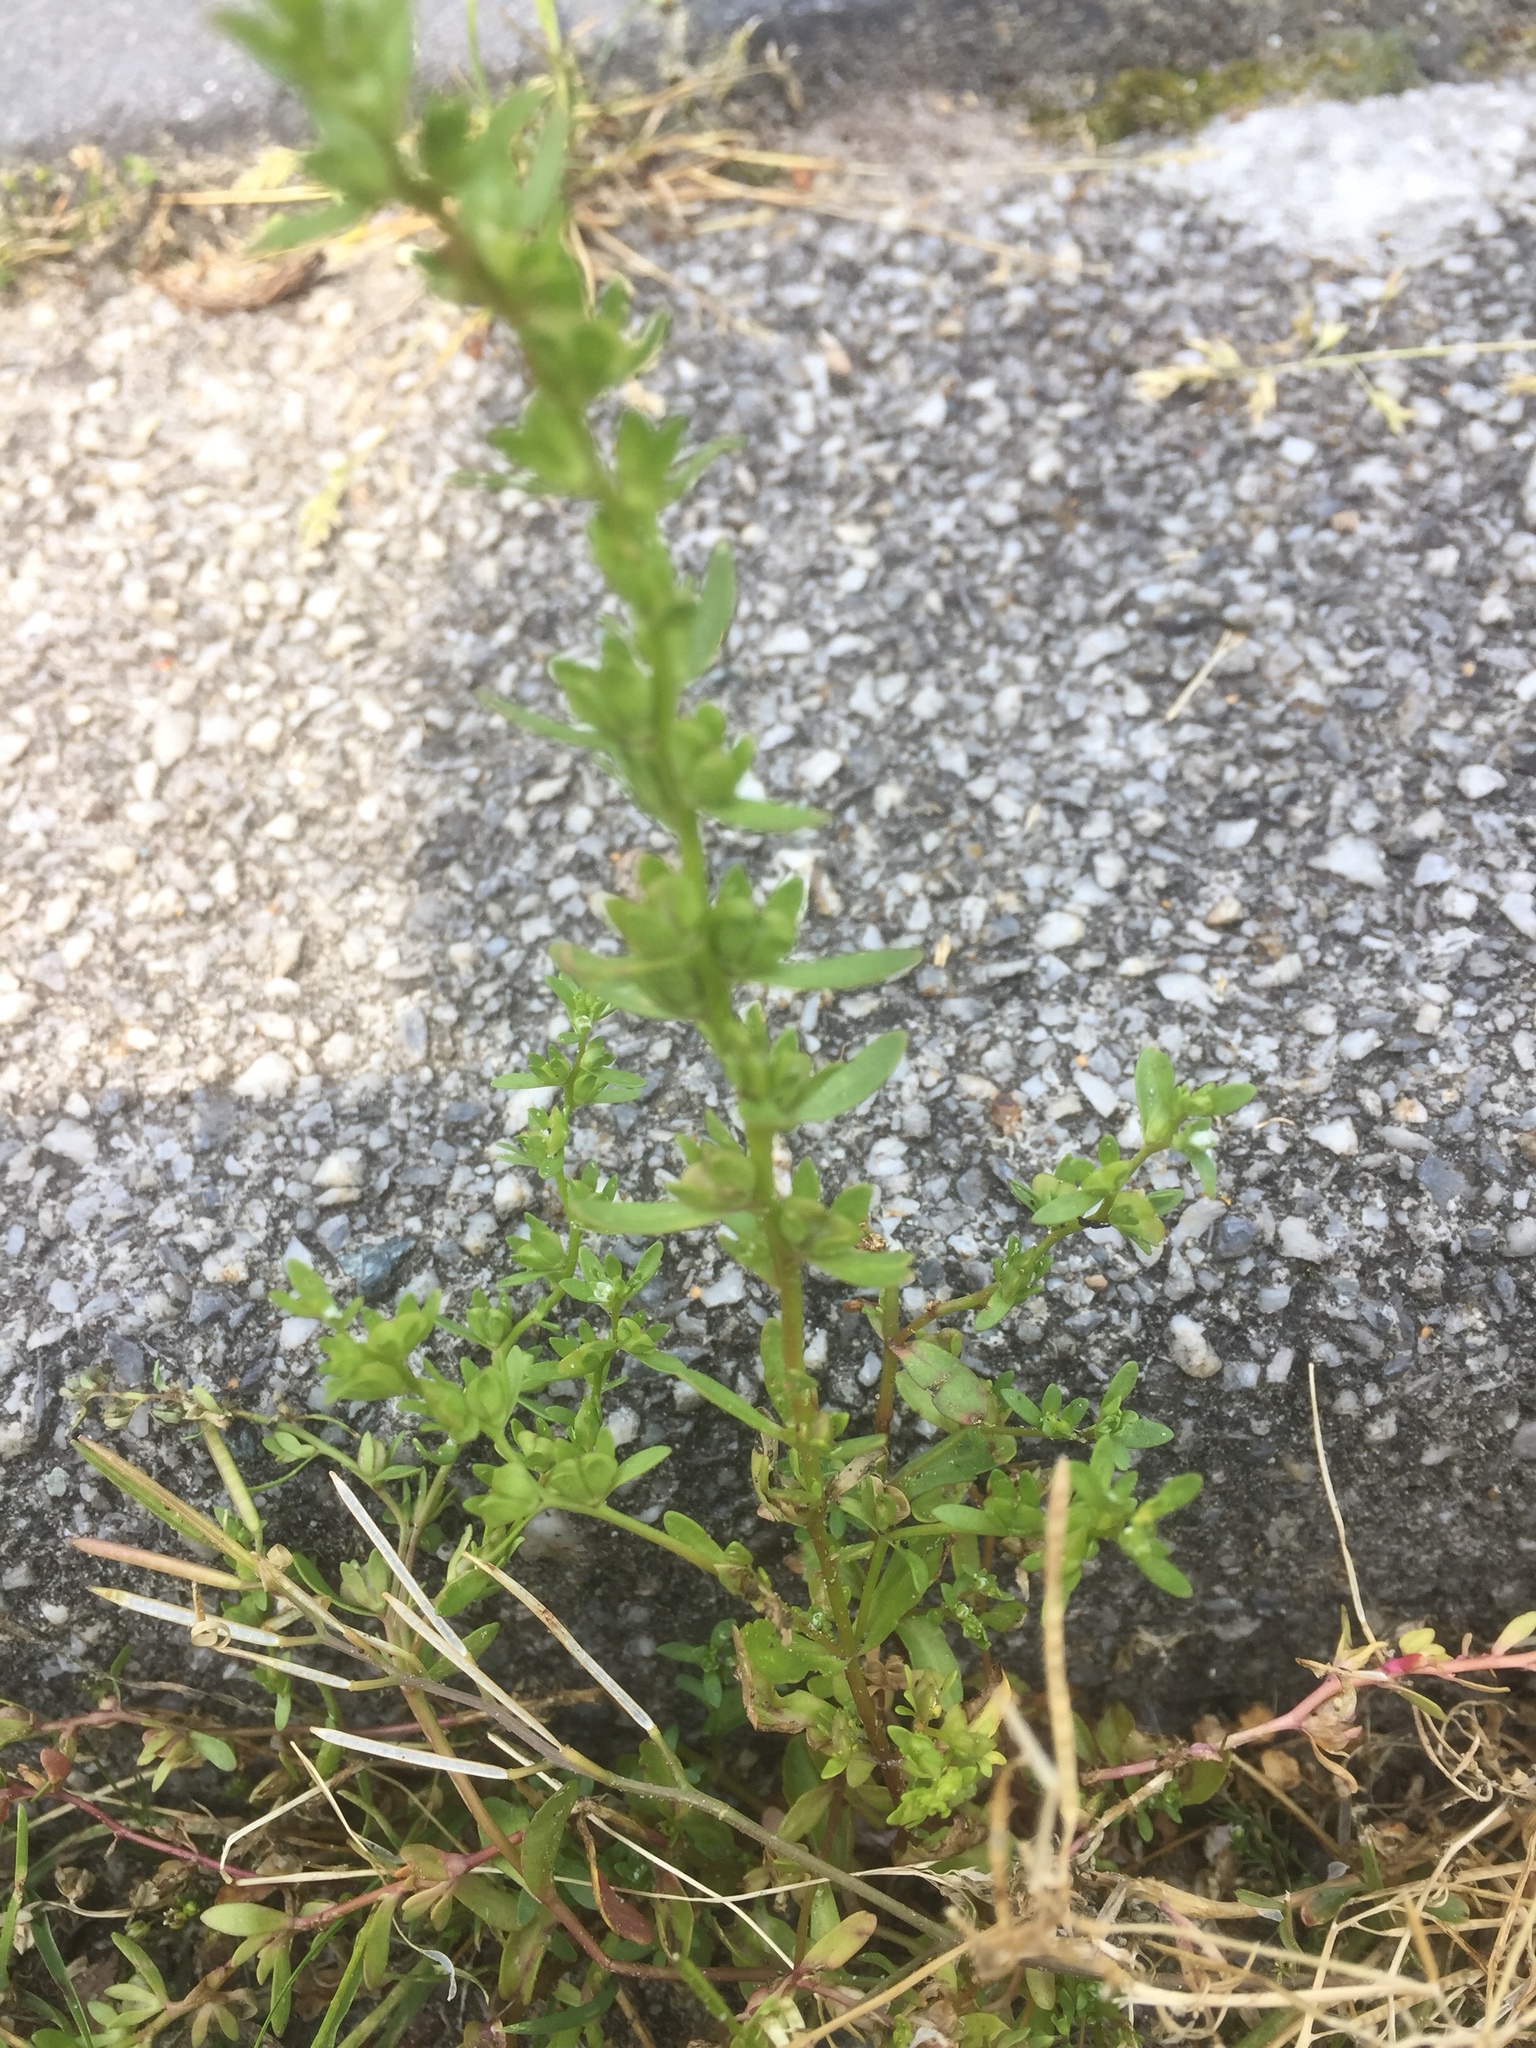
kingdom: Plantae
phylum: Tracheophyta
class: Magnoliopsida
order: Lamiales
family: Plantaginaceae
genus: Veronica
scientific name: Veronica peregrina
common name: Neckweed
